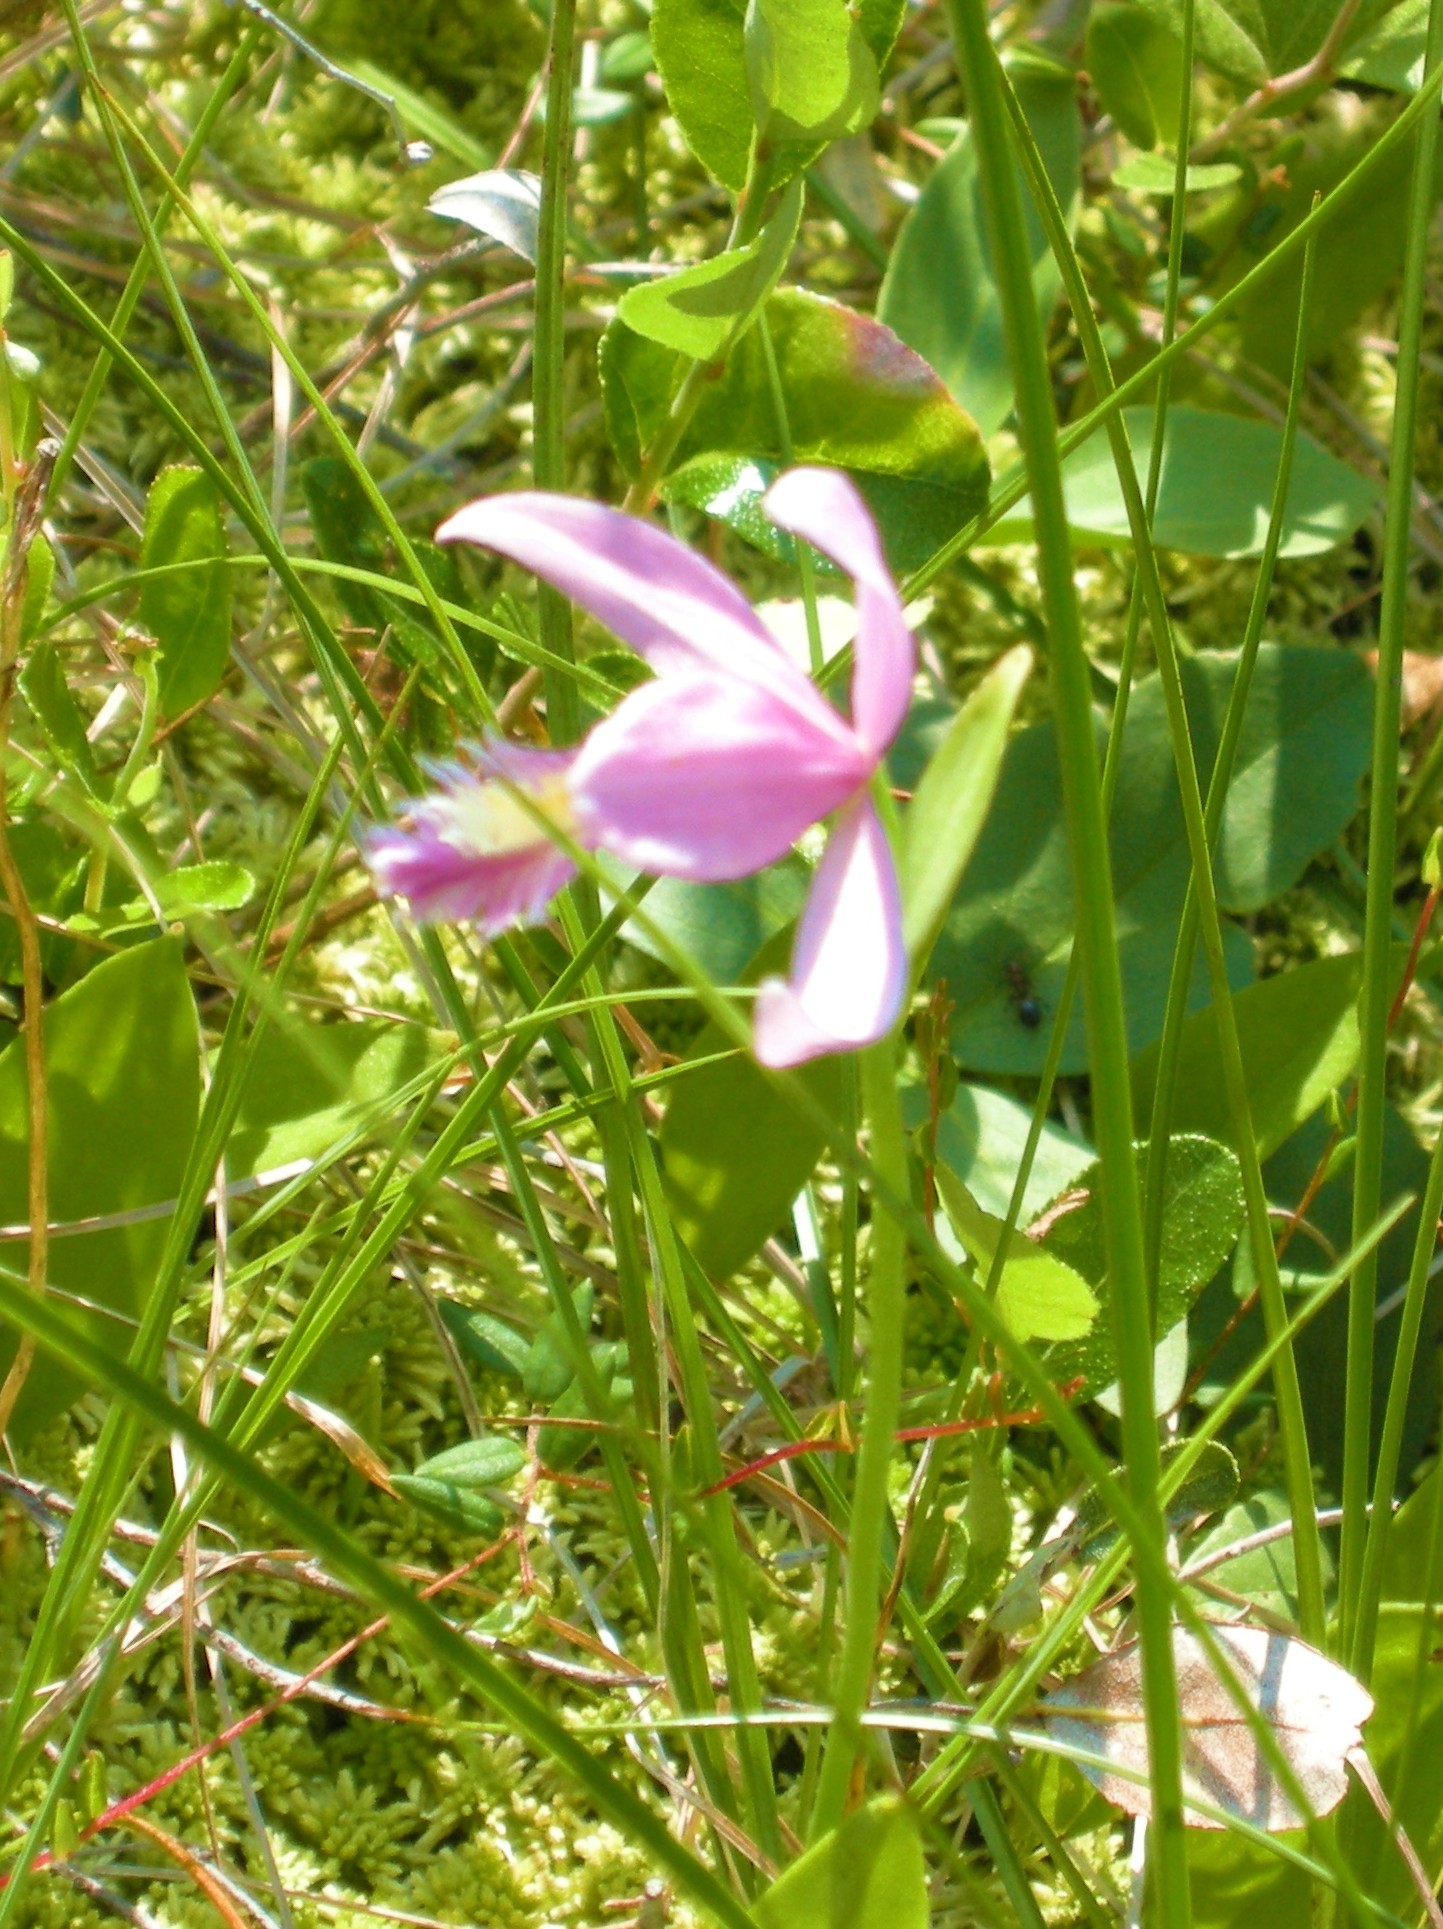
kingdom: Plantae
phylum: Tracheophyta
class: Liliopsida
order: Asparagales
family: Orchidaceae
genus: Pogonia
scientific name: Pogonia ophioglossoides
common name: Rose pogonia
